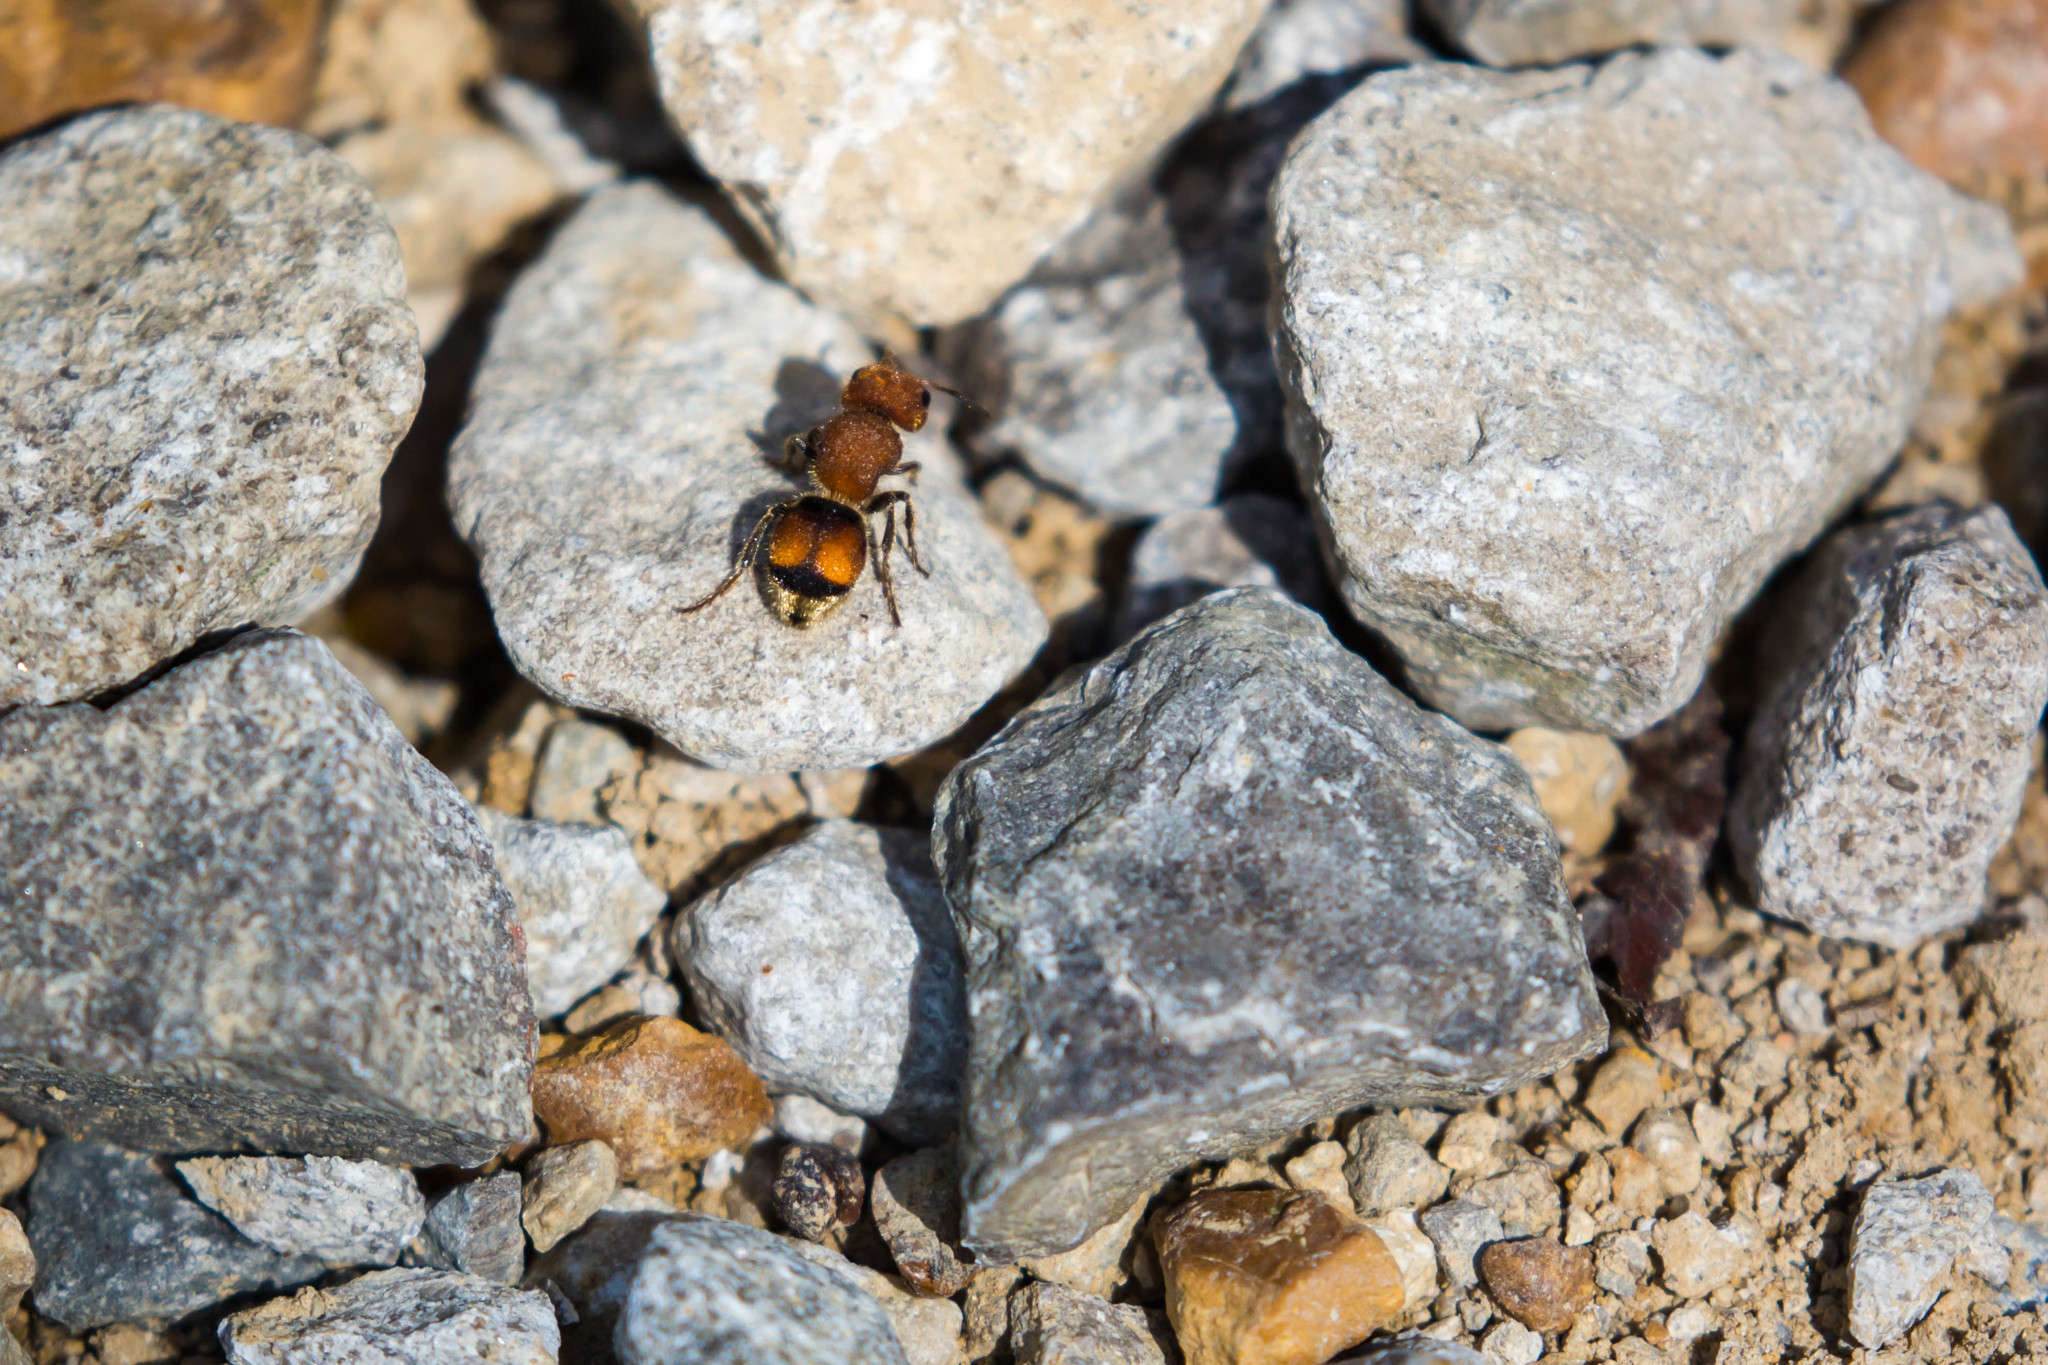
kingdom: Animalia
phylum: Arthropoda
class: Insecta
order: Hymenoptera
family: Mutillidae
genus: Pseudomethoca
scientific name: Pseudomethoca
